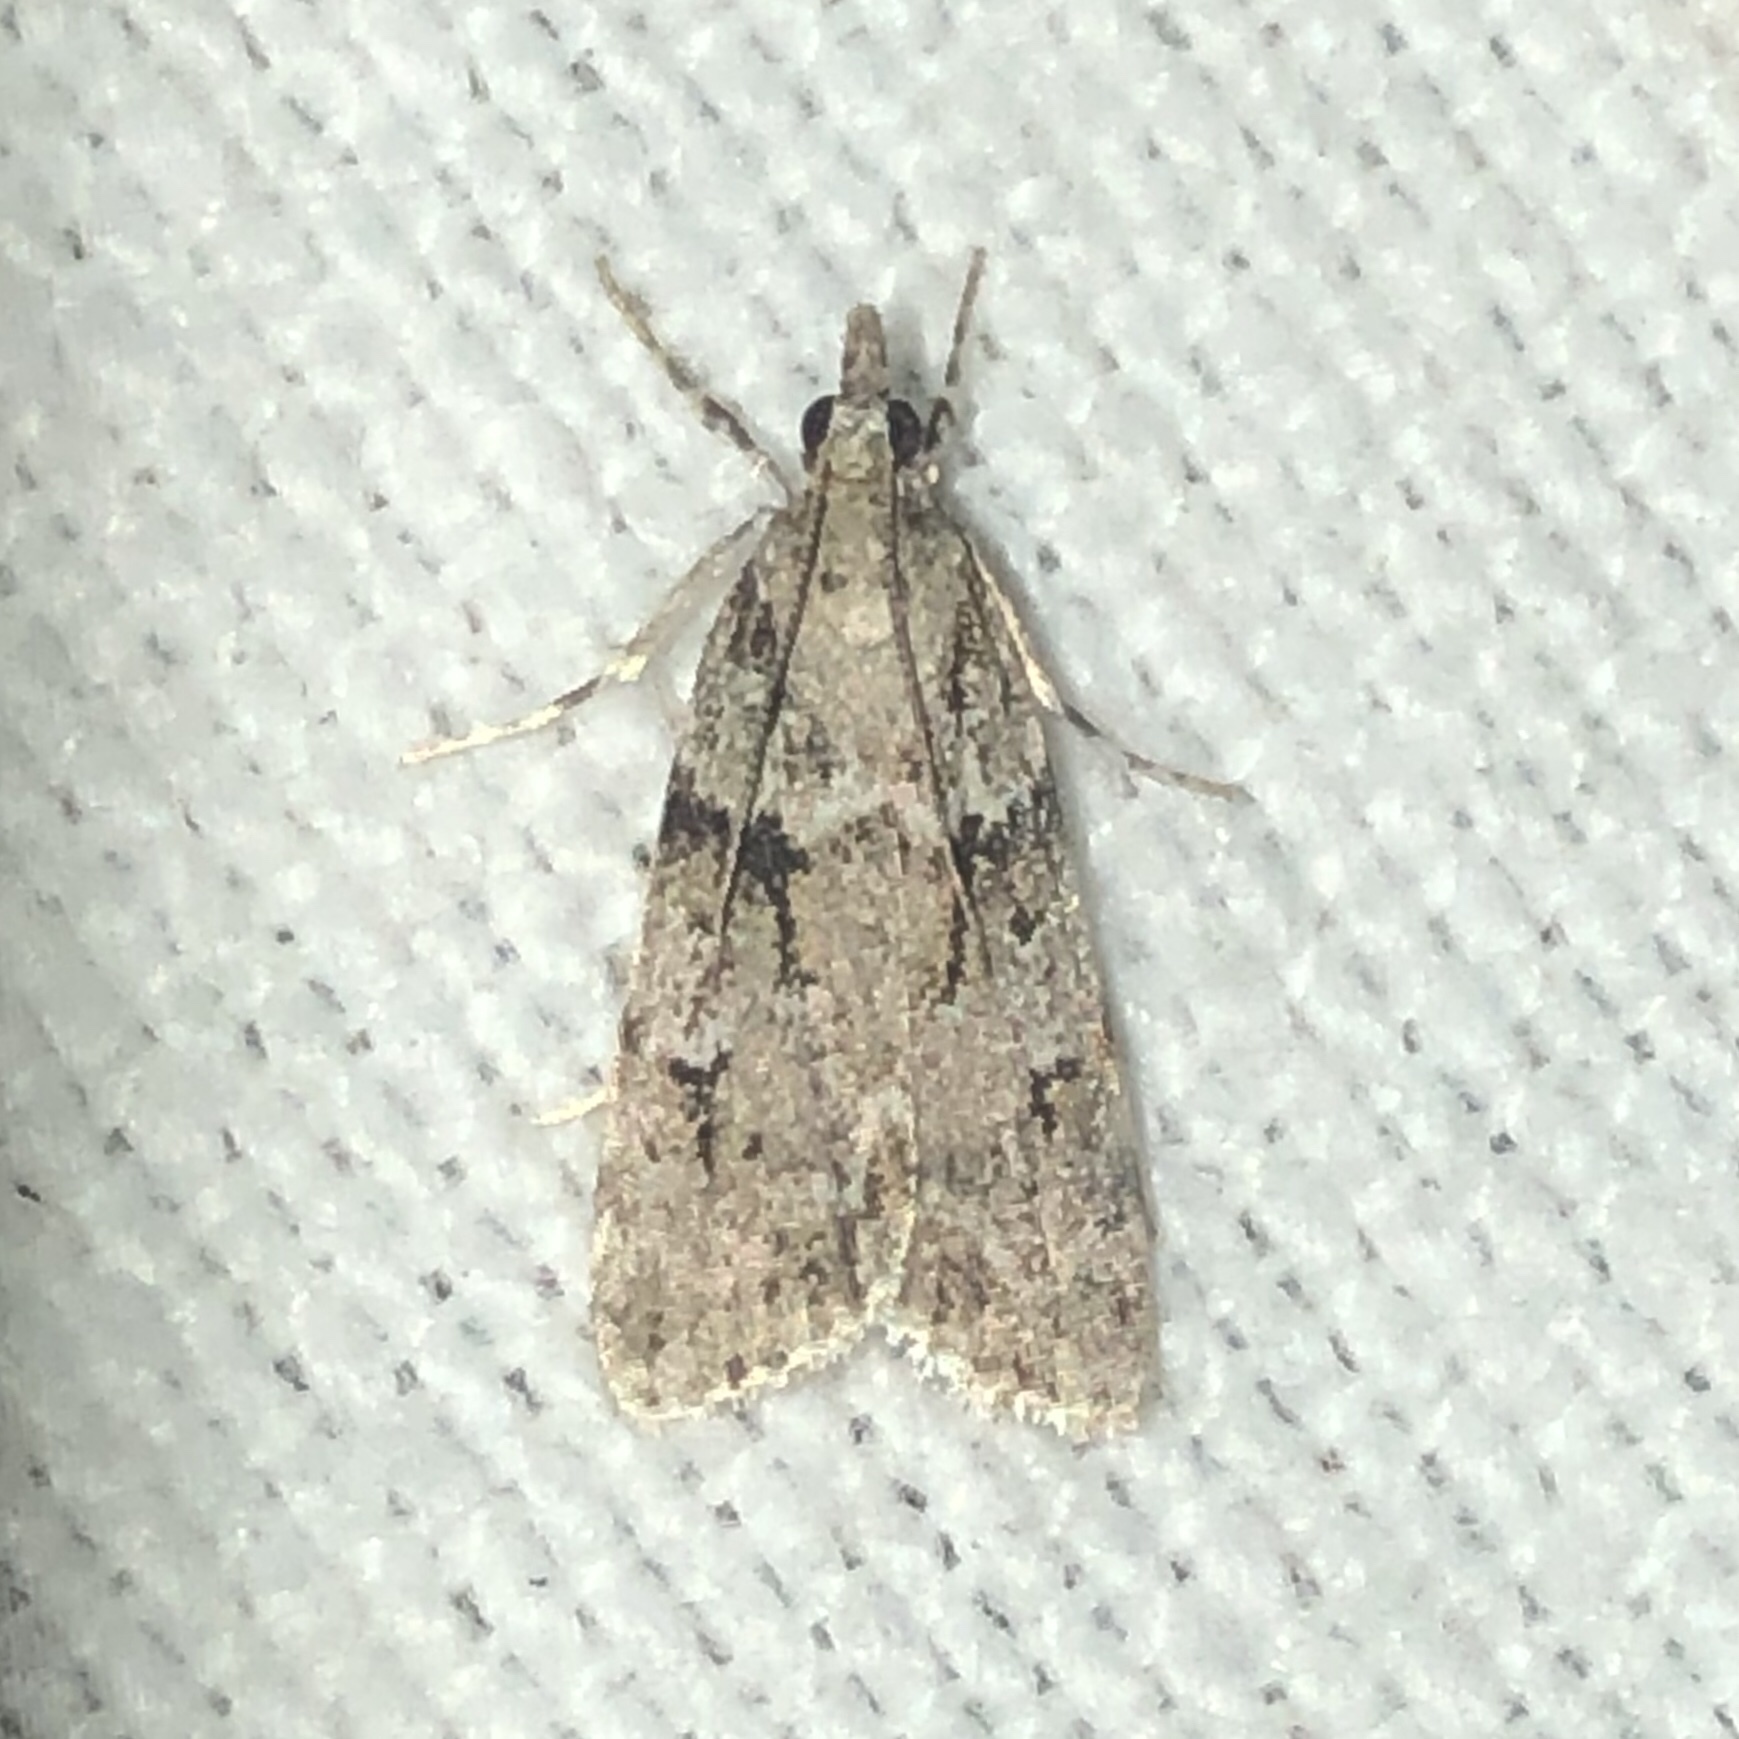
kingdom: Animalia
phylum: Arthropoda
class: Insecta
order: Lepidoptera
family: Crambidae
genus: Scoparia
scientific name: Scoparia biplagialis
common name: Double-striped scoparia moth
